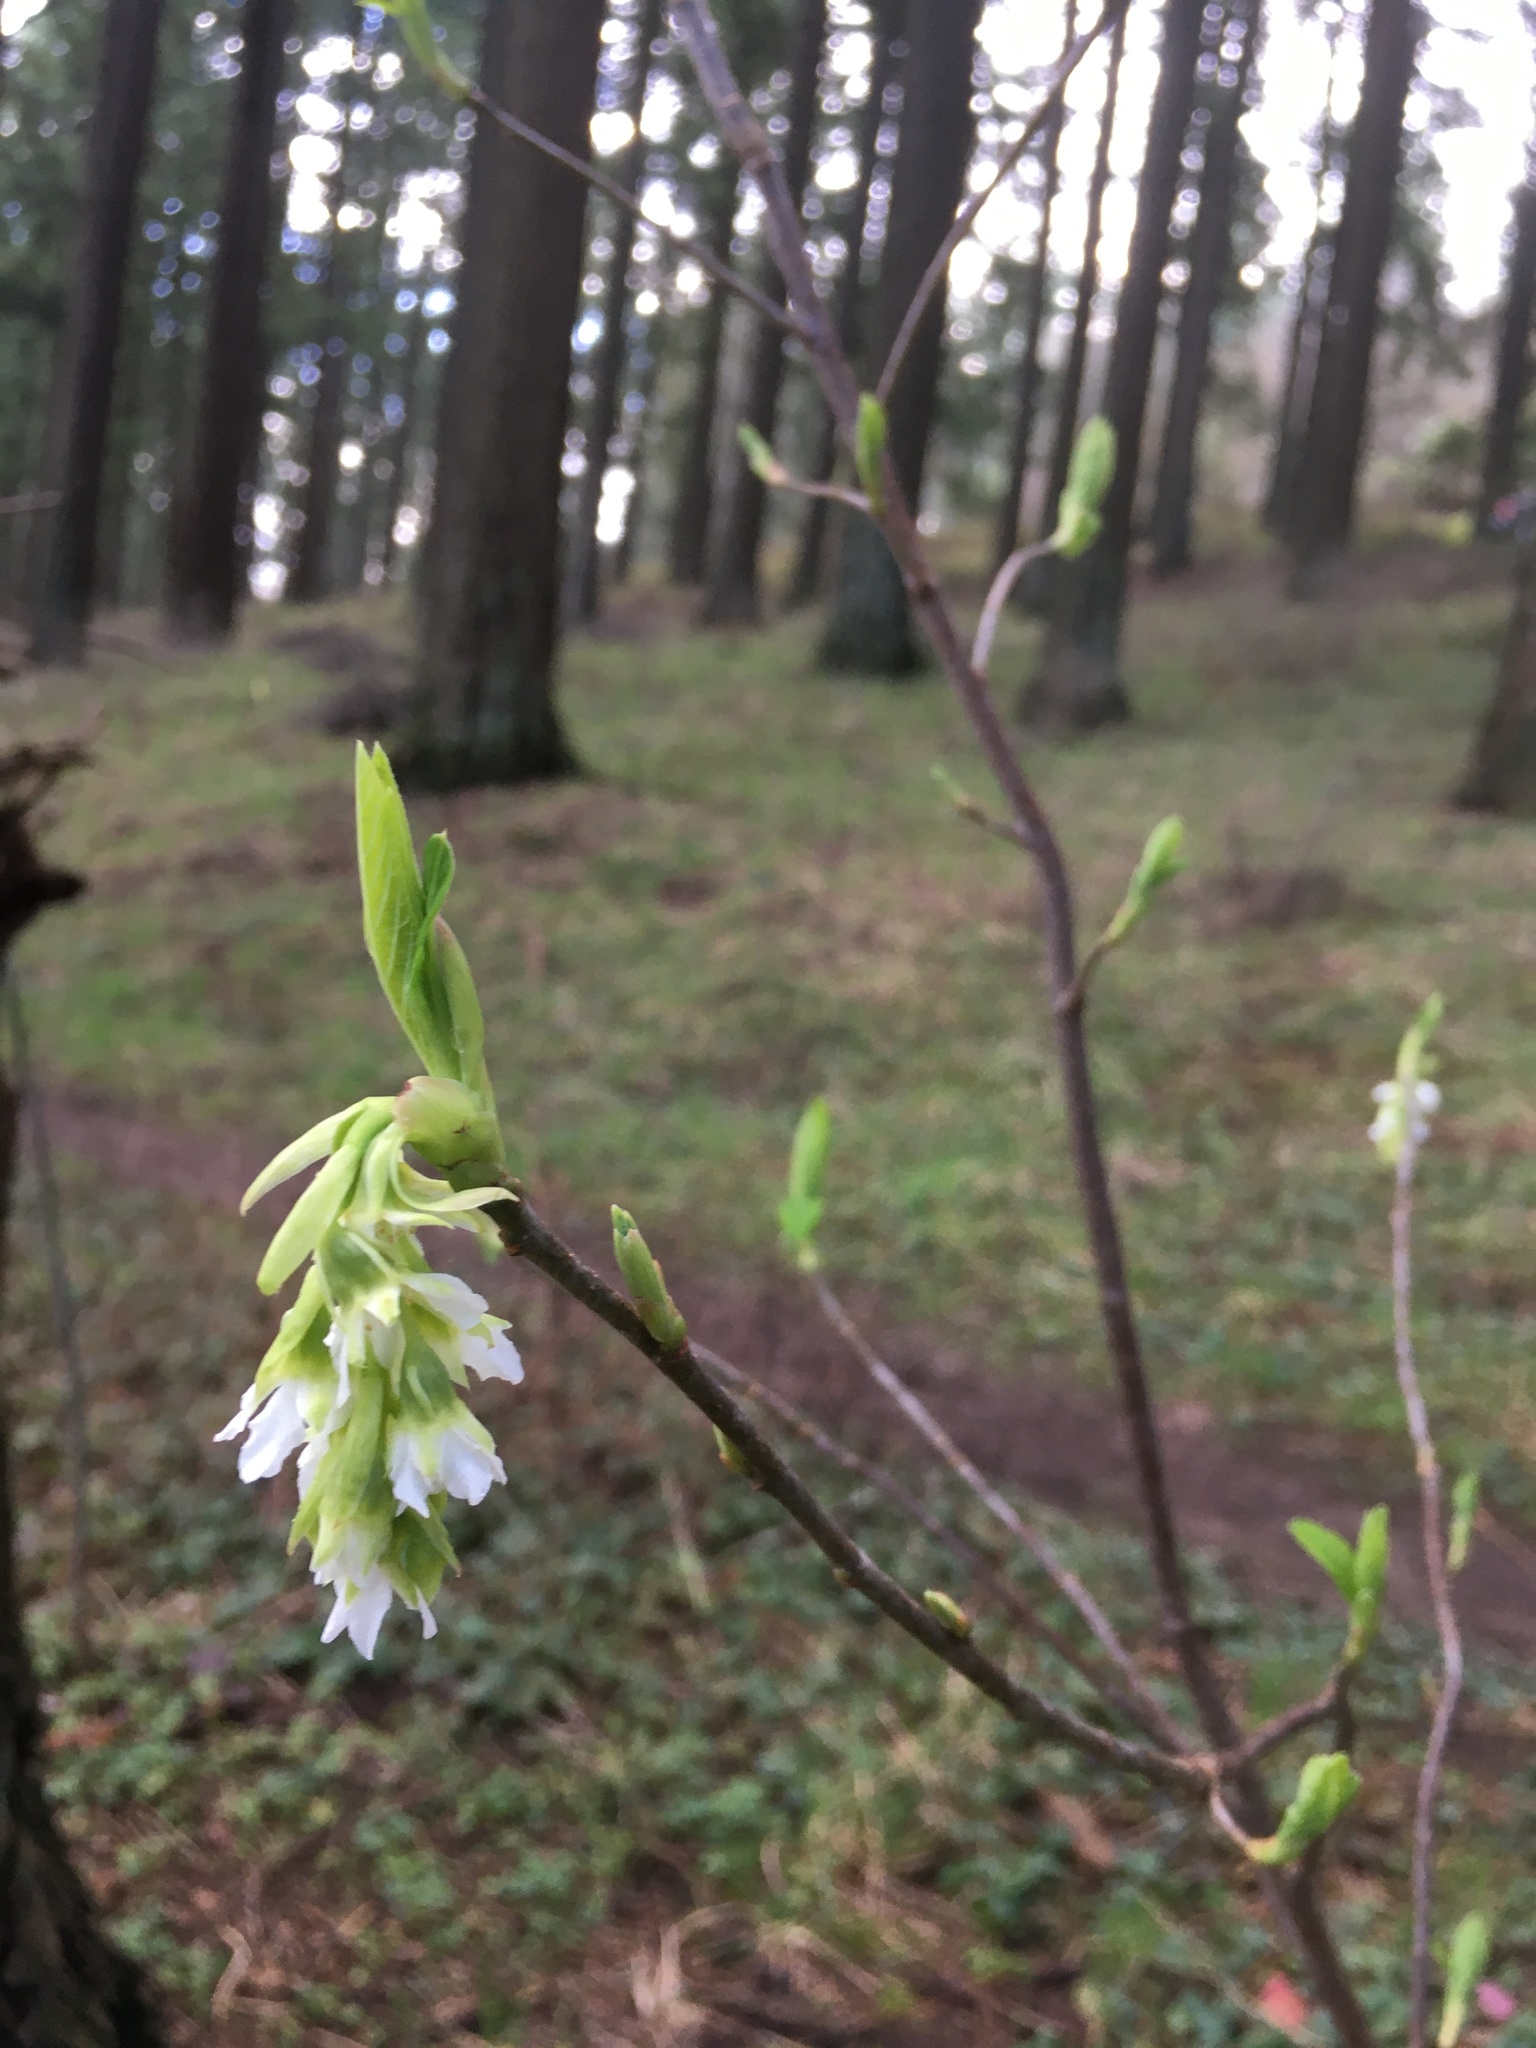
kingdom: Plantae
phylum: Tracheophyta
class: Magnoliopsida
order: Rosales
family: Rosaceae
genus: Oemleria
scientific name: Oemleria cerasiformis
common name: Osoberry
